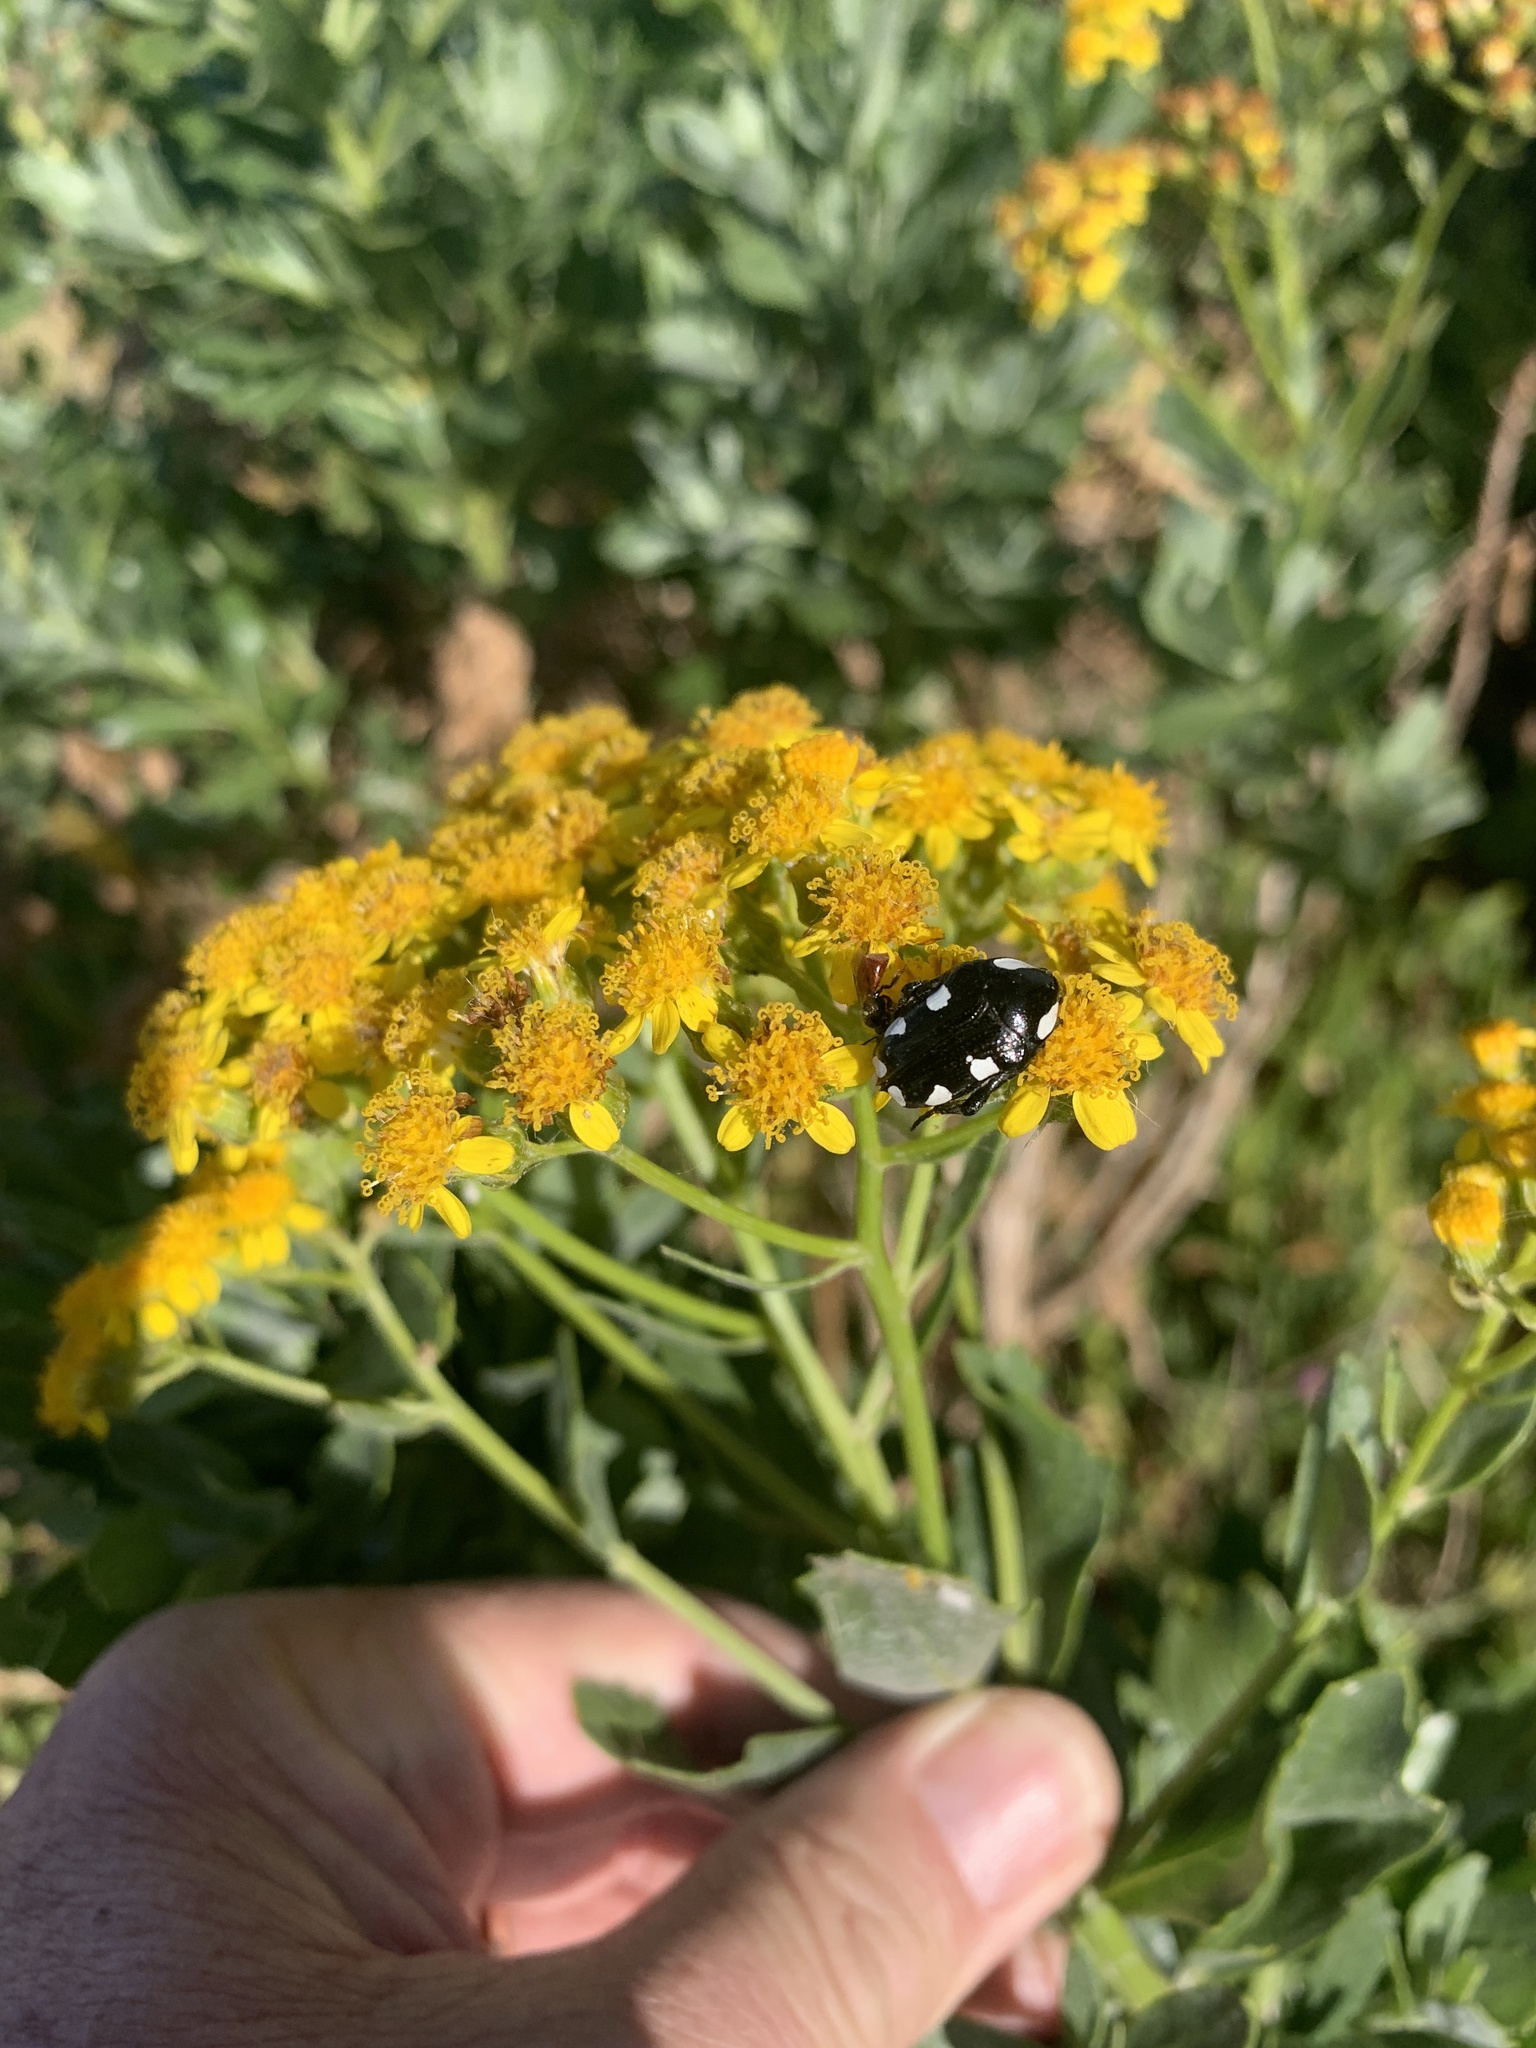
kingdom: Animalia
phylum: Arthropoda
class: Insecta
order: Coleoptera
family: Scarabaeidae
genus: Mausoleopsis
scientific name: Mausoleopsis amabilis
